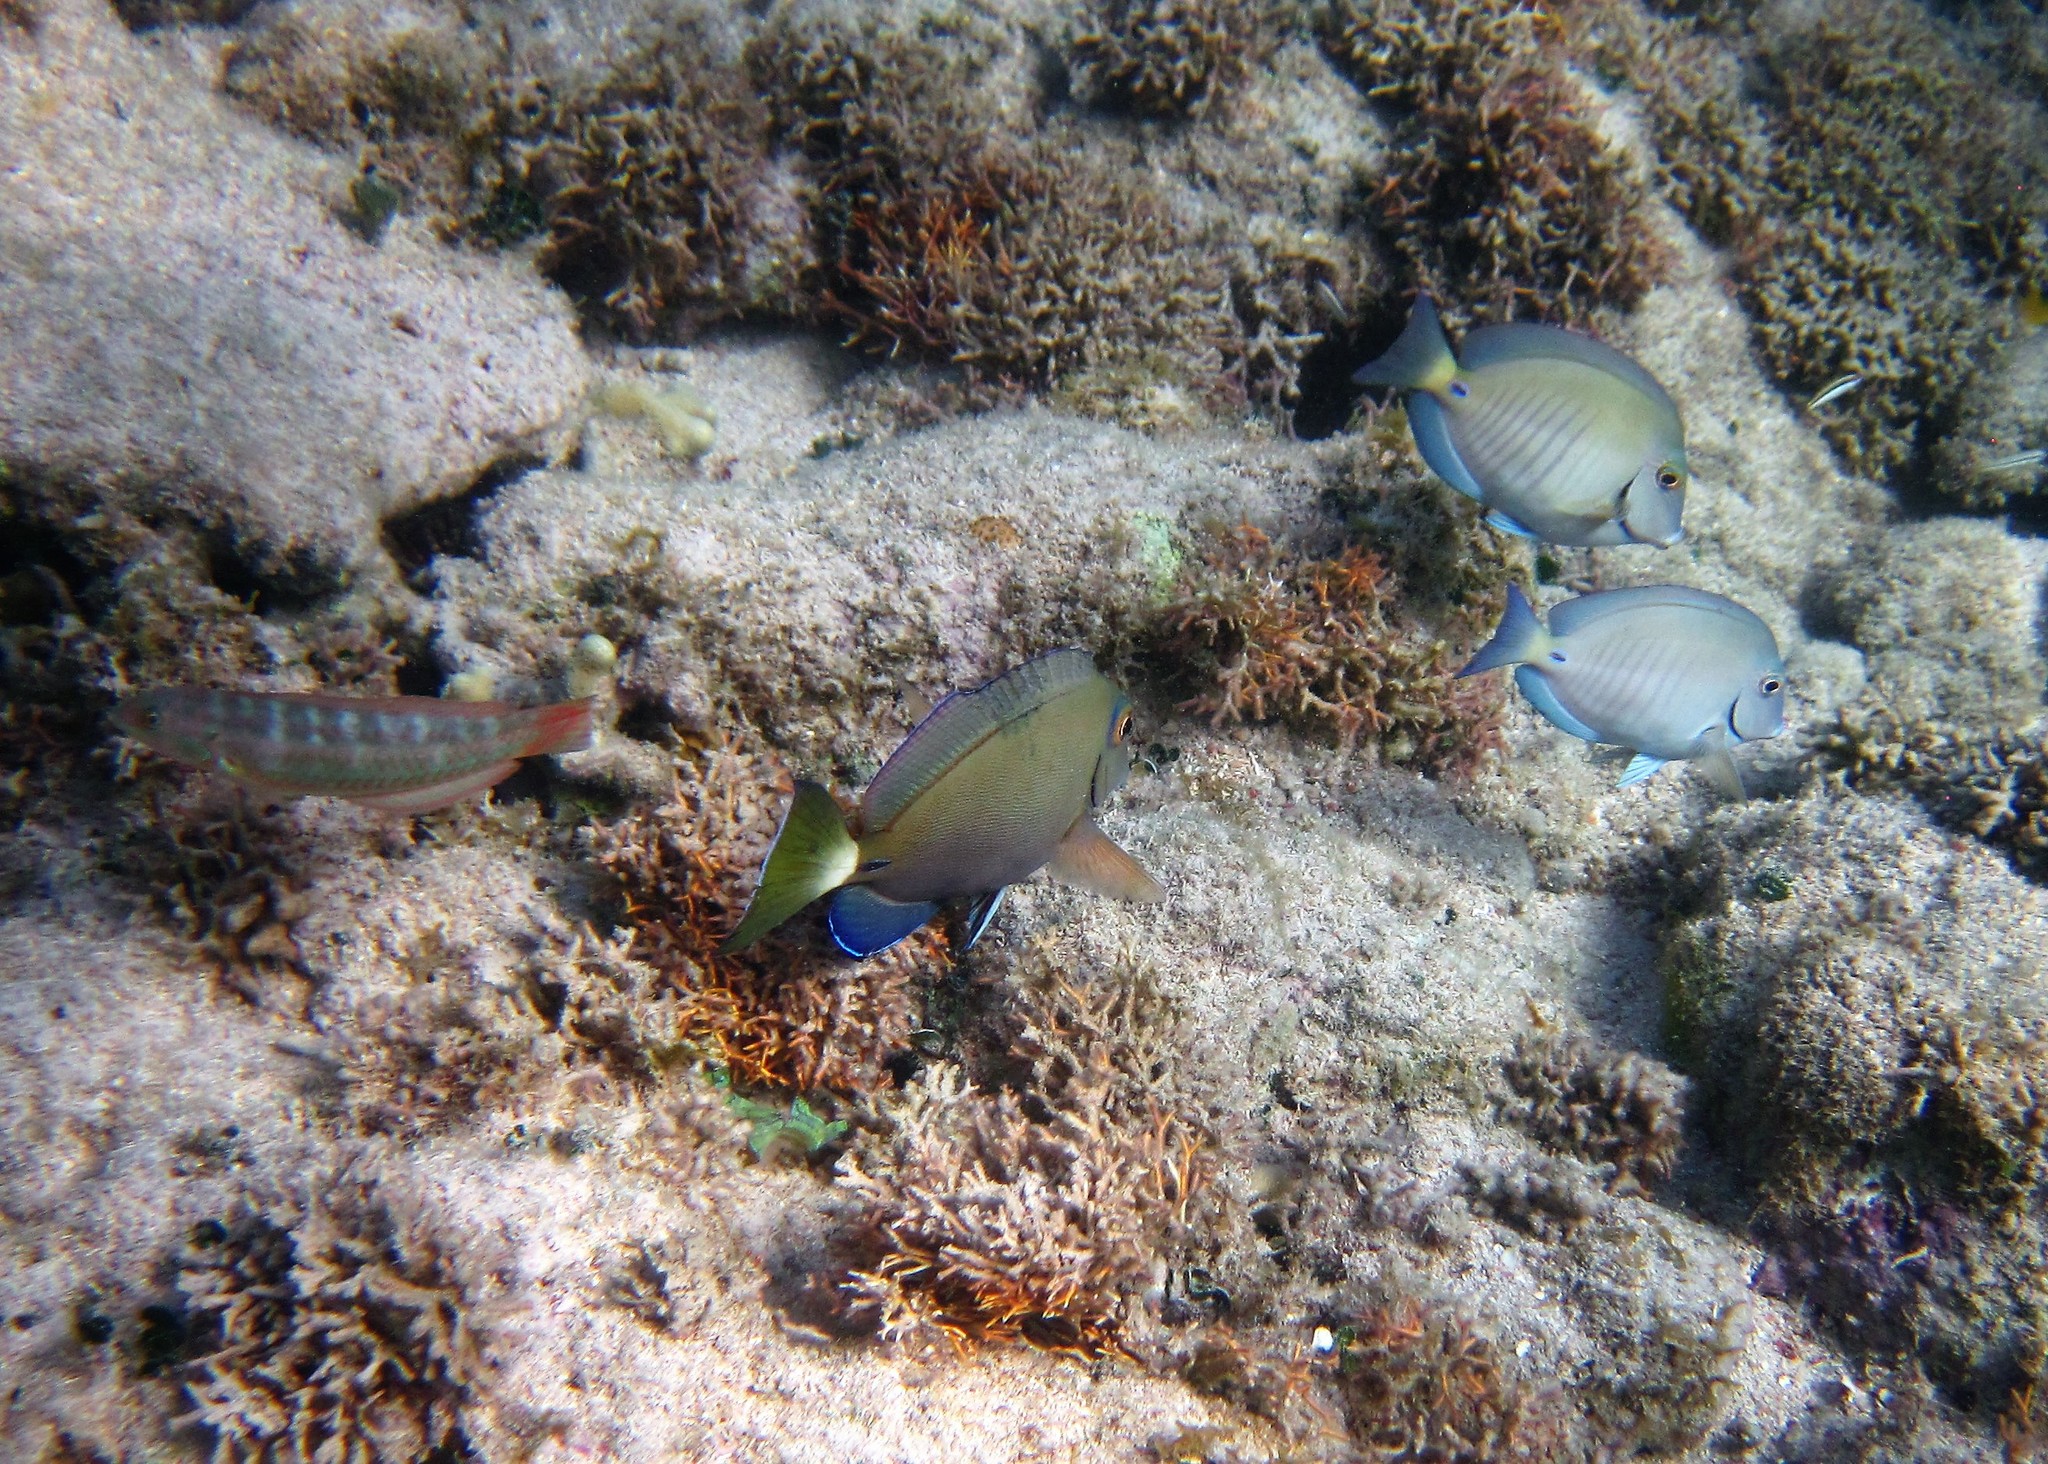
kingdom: Animalia
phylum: Chordata
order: Perciformes
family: Acanthuridae
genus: Acanthurus
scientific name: Acanthurus bahianus
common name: Ocean surgeon
